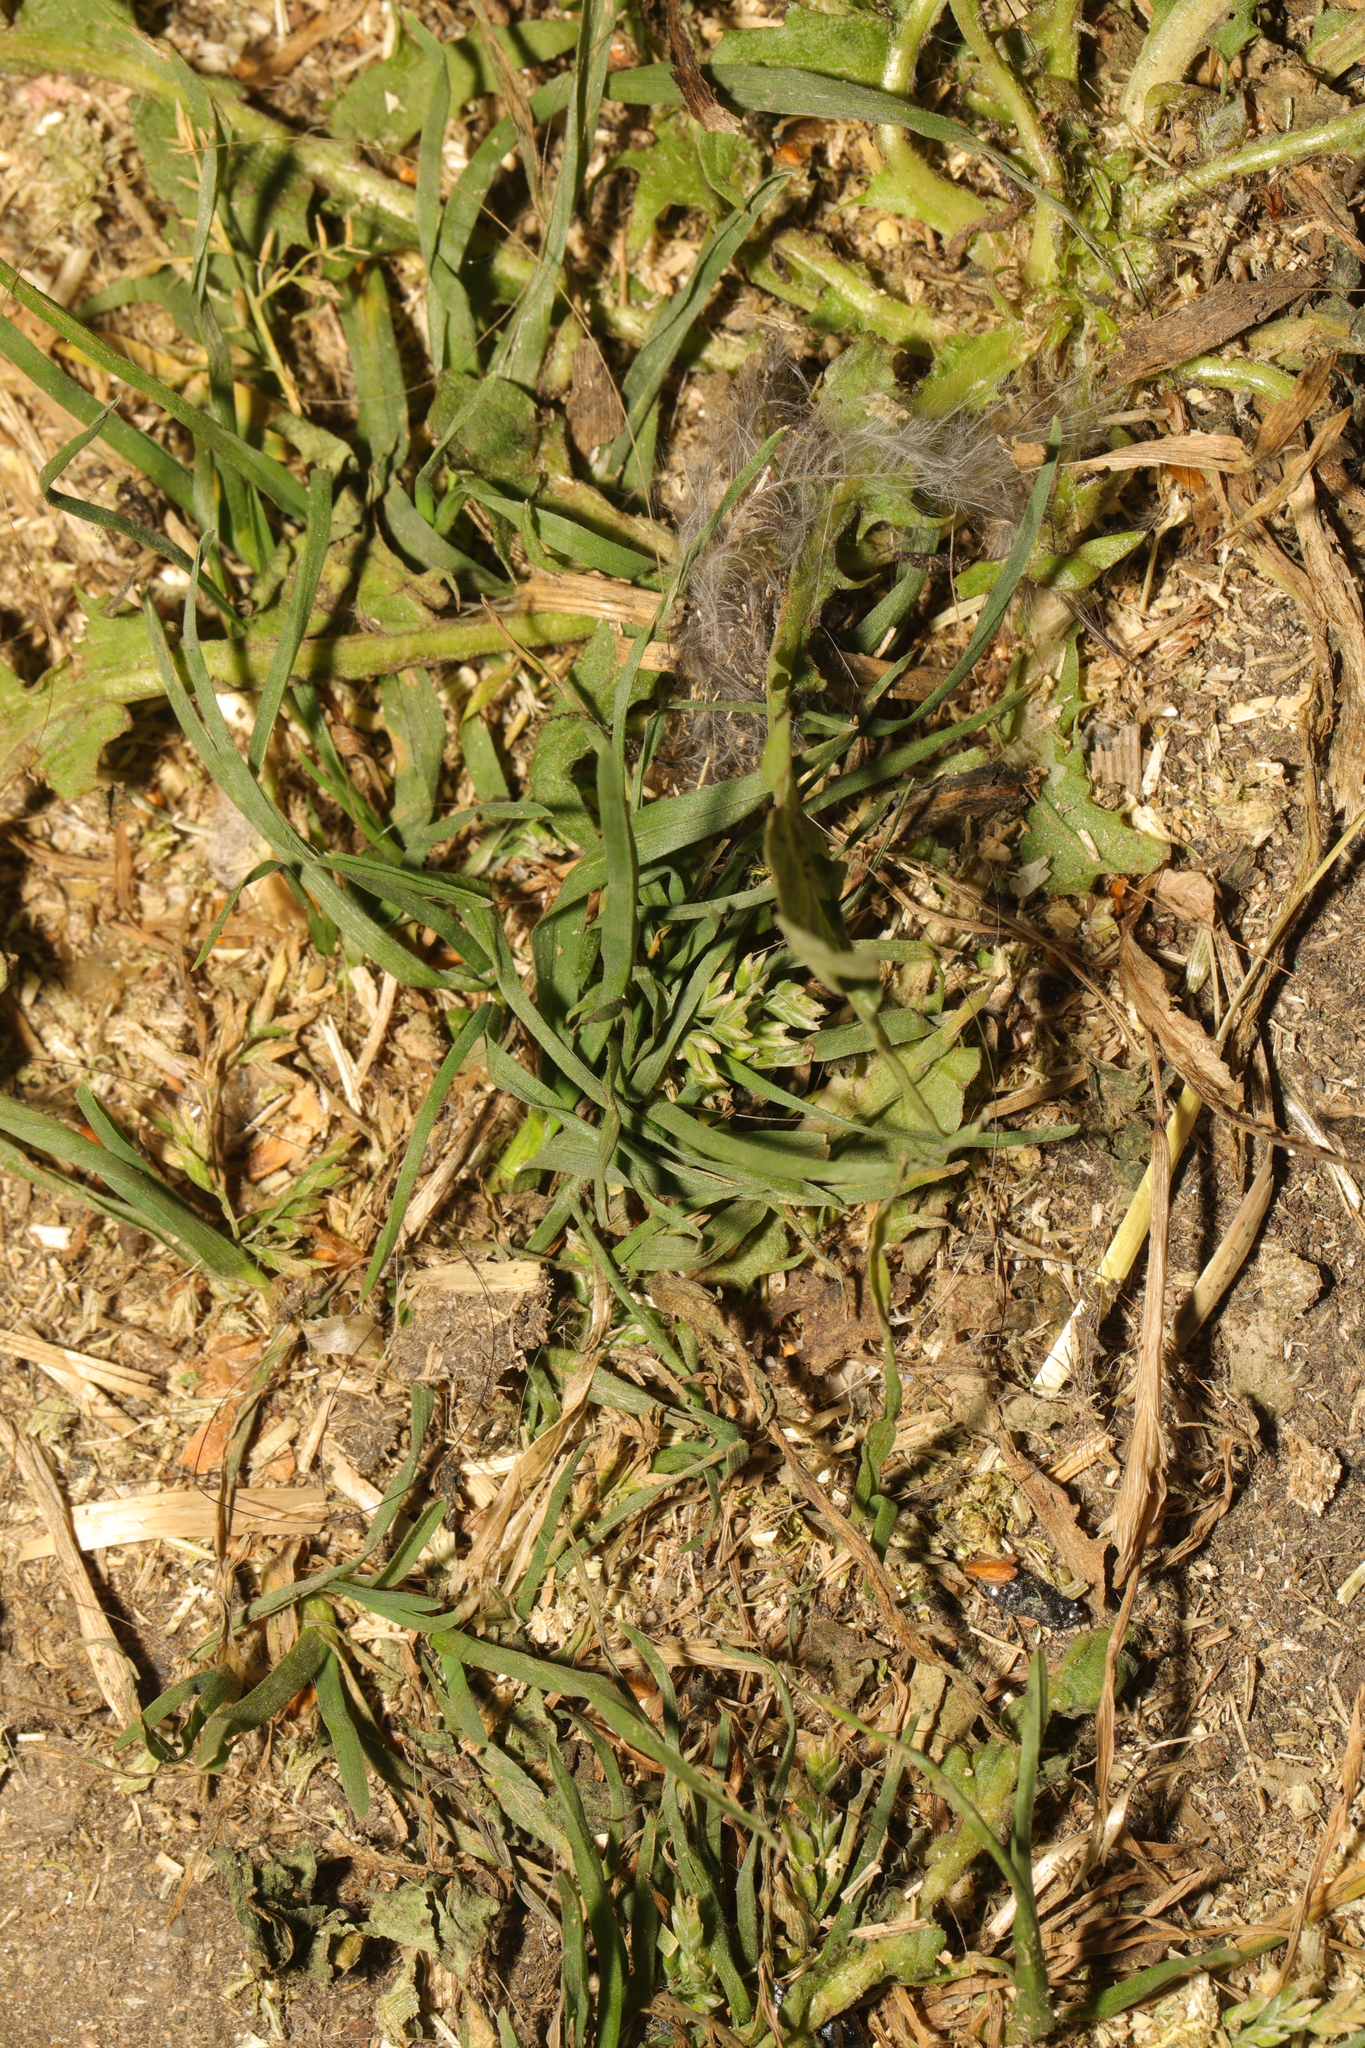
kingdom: Plantae
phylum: Tracheophyta
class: Liliopsida
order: Poales
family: Poaceae
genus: Poa
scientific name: Poa annua
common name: Annual bluegrass
